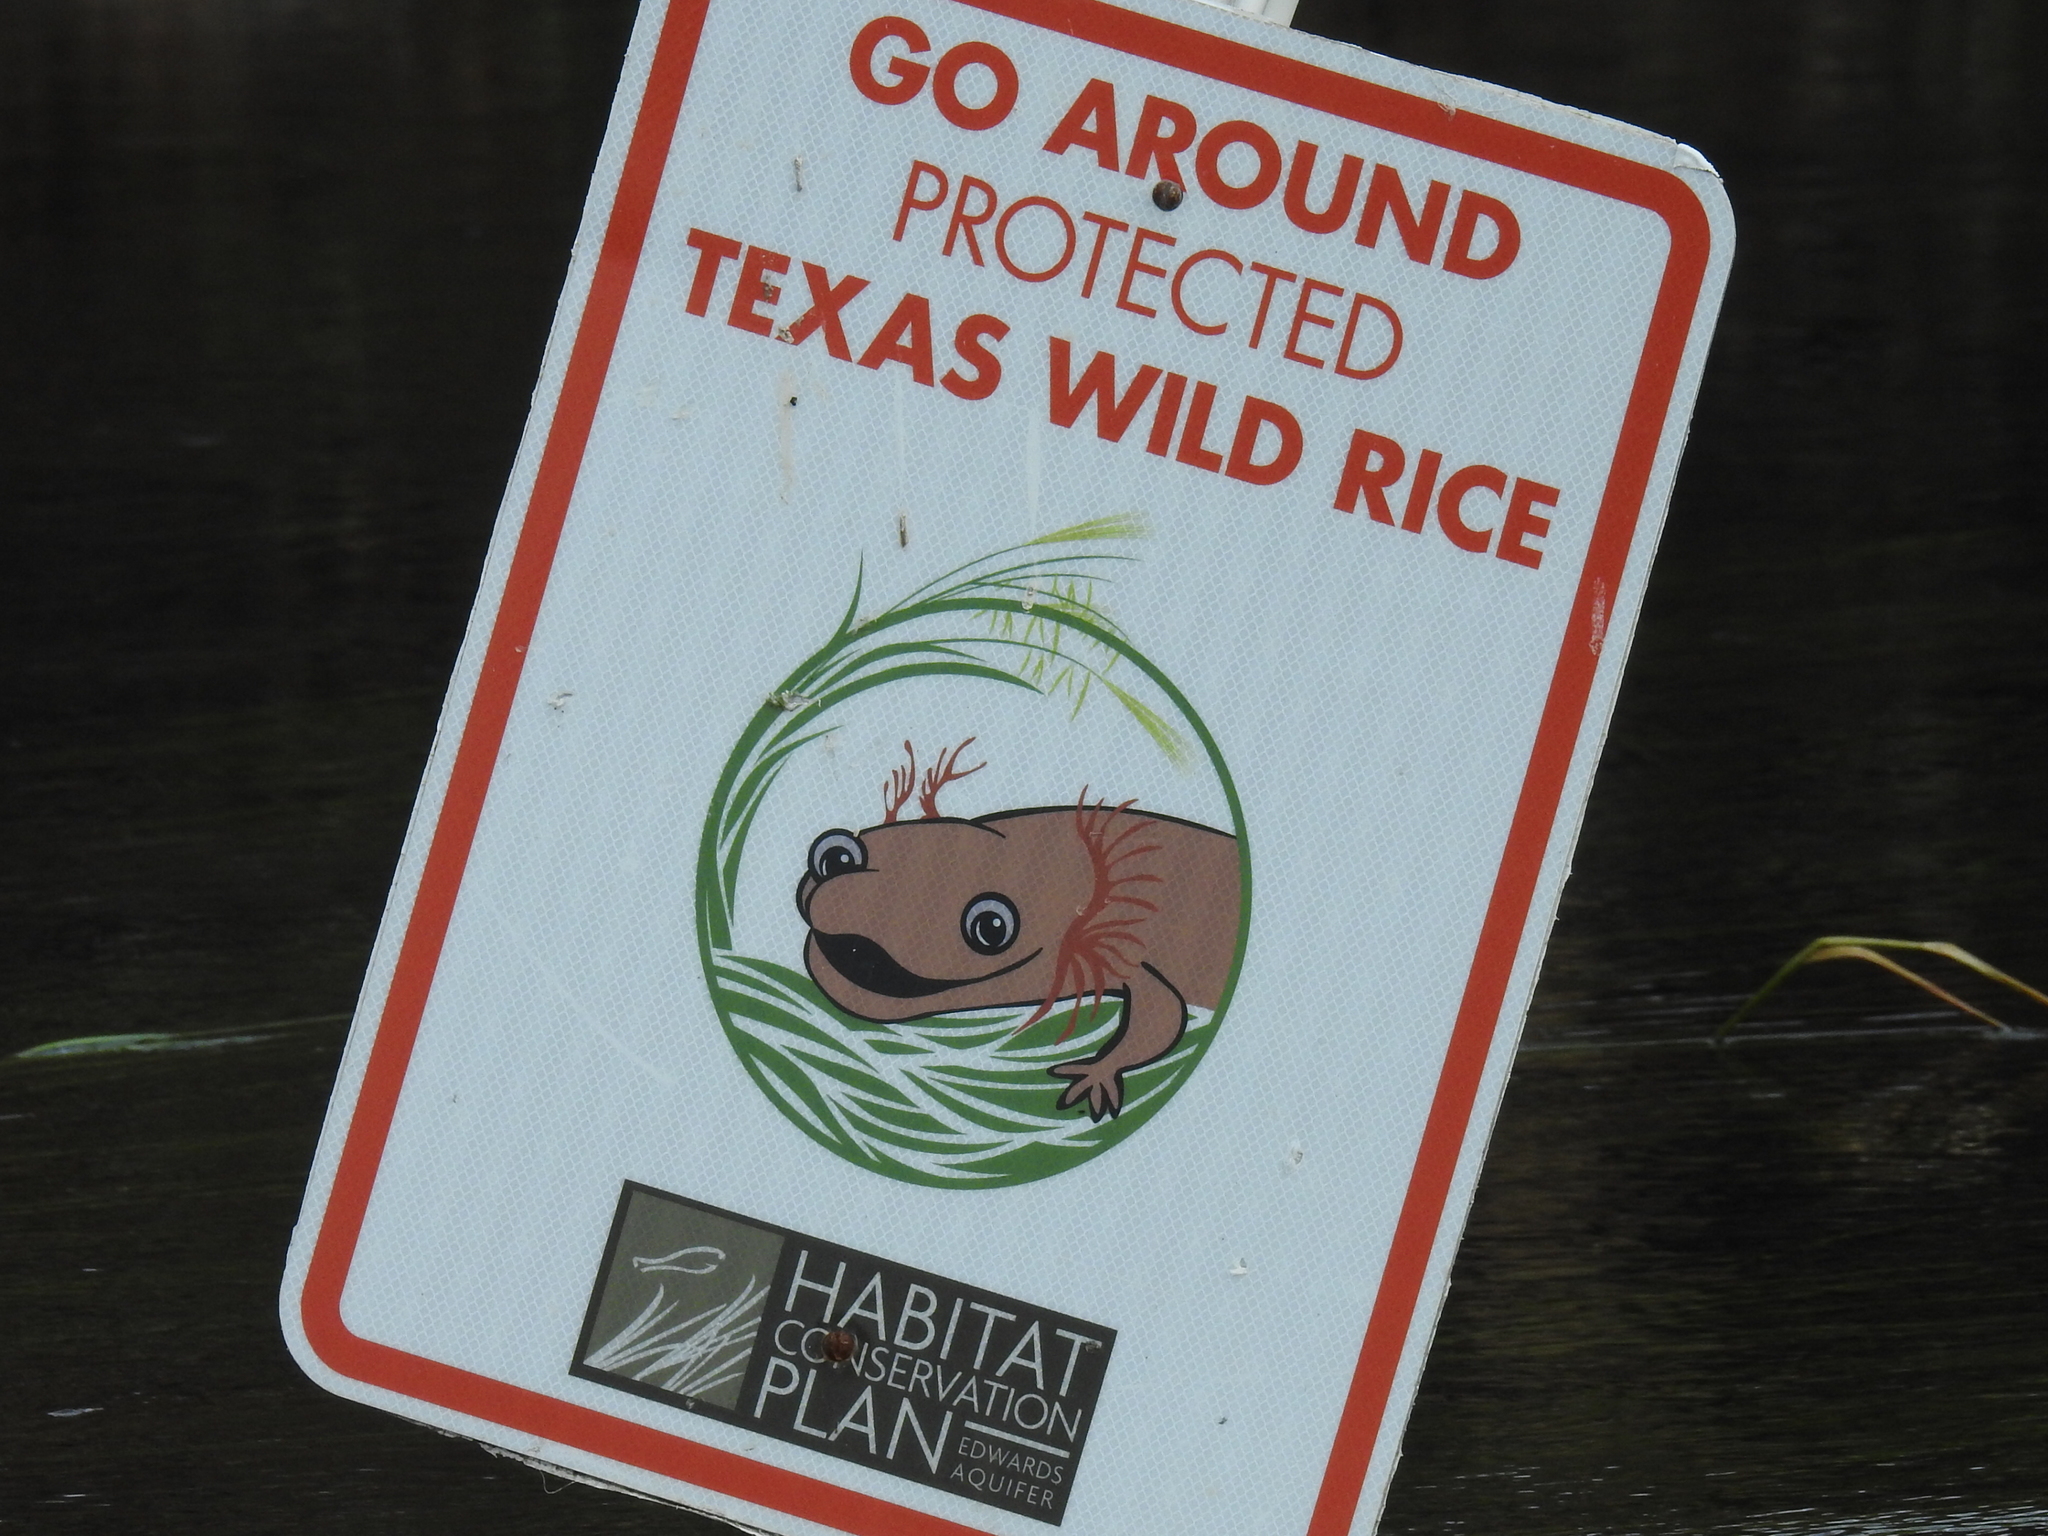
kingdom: Plantae
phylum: Tracheophyta
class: Liliopsida
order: Poales
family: Poaceae
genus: Zizania
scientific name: Zizania texana
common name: Texas wild rice
